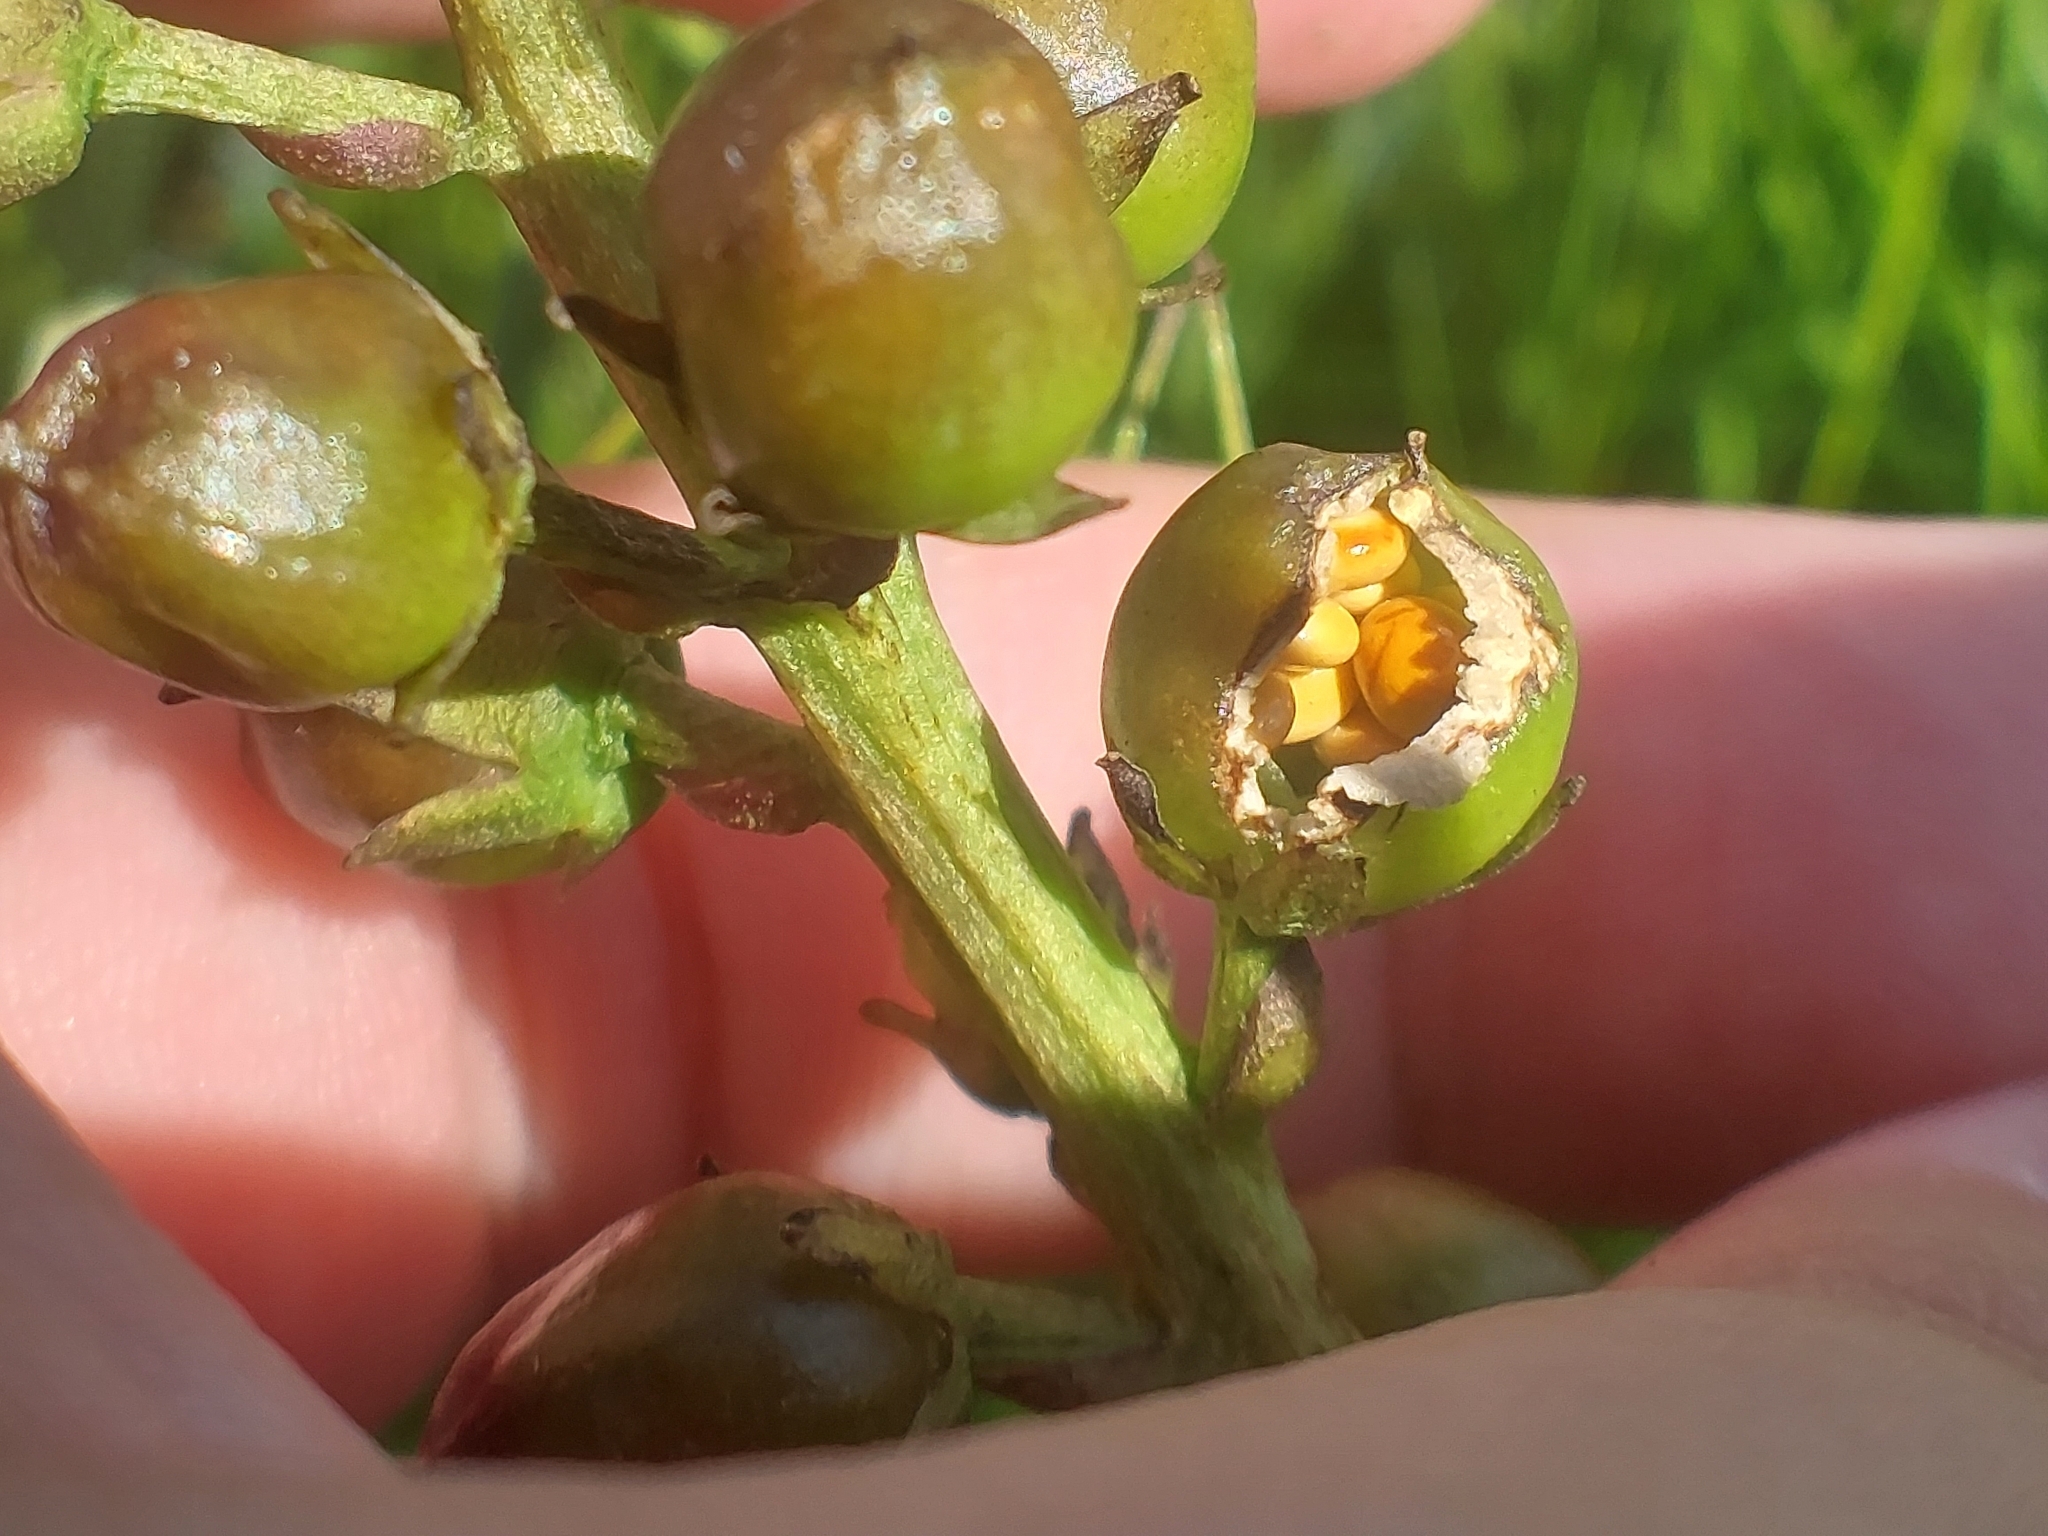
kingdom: Plantae
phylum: Tracheophyta
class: Magnoliopsida
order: Asterales
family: Menyanthaceae
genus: Menyanthes
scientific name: Menyanthes trifoliata
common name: Bogbean
